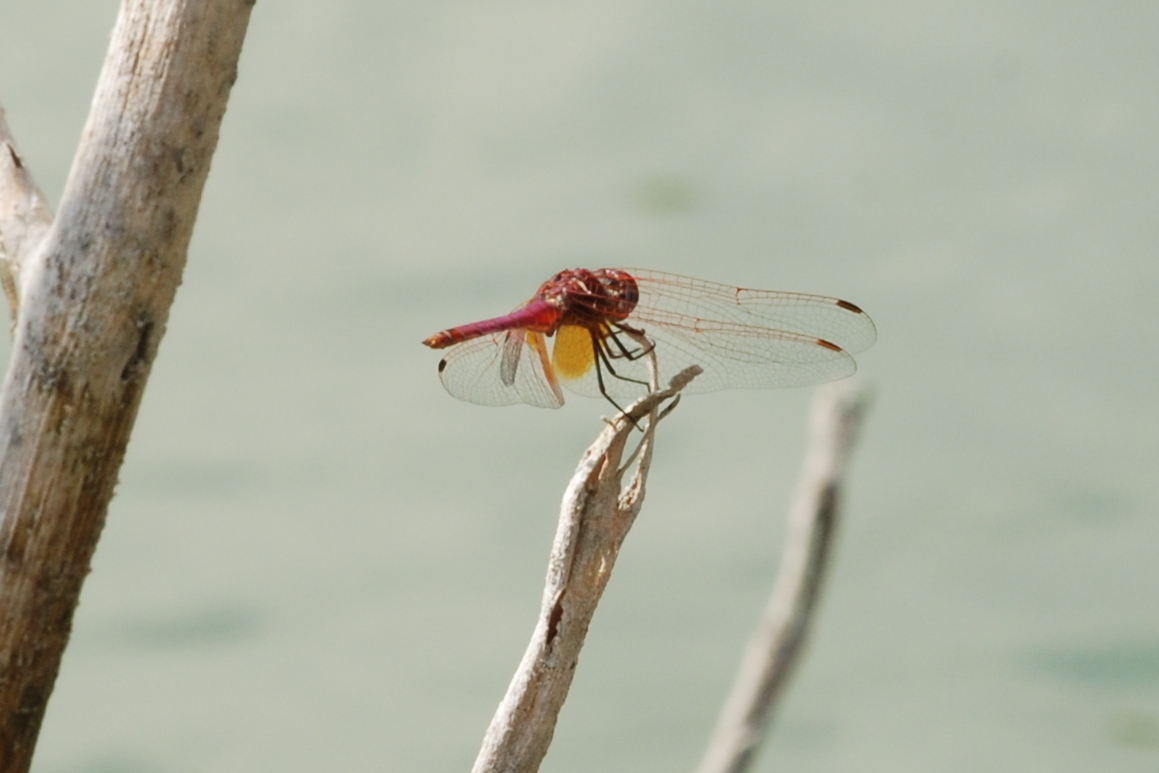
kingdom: Animalia
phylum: Arthropoda
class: Insecta
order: Odonata
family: Libellulidae
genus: Trithemis
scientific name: Trithemis annulata
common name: Violet dropwing
